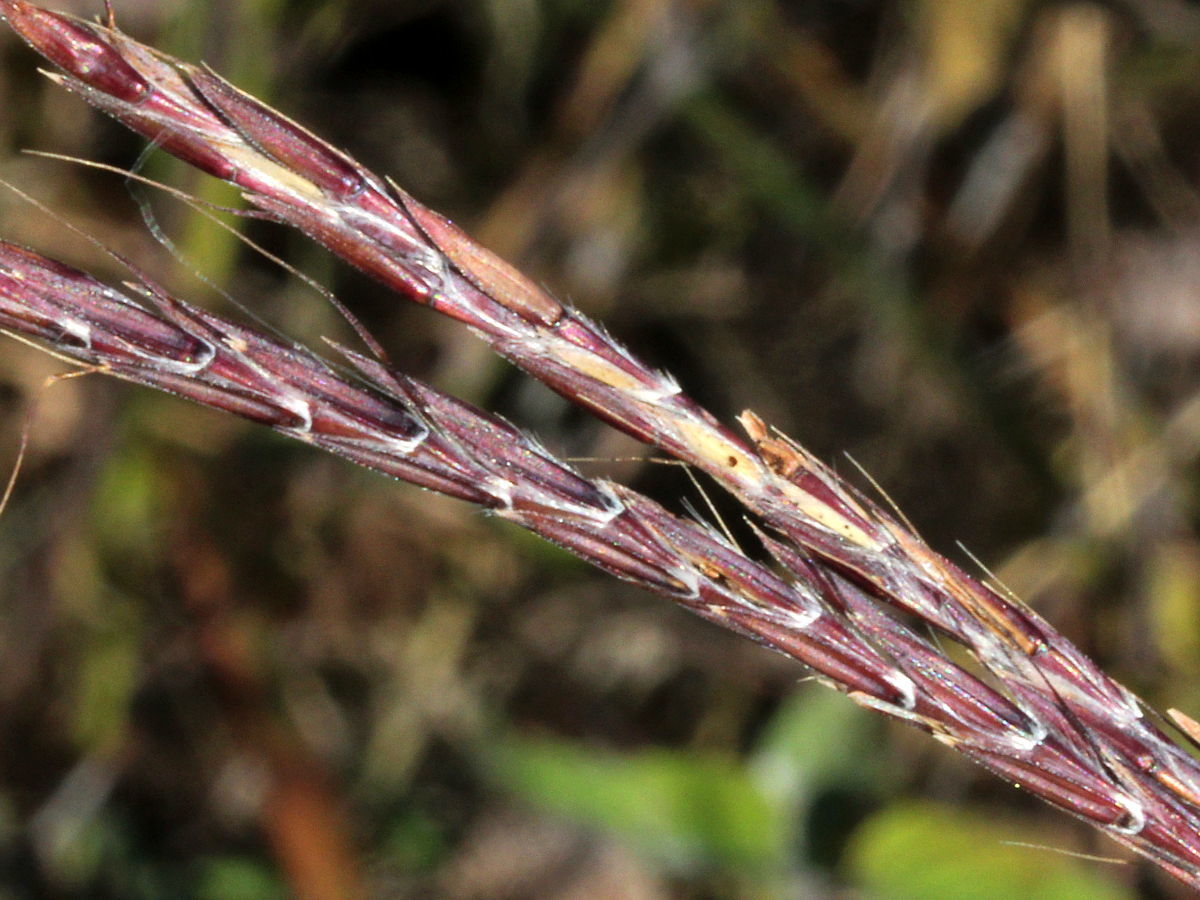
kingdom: Plantae
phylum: Tracheophyta
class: Liliopsida
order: Poales
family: Poaceae
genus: Andropogon
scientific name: Andropogon gerardi
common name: Big bluestem
